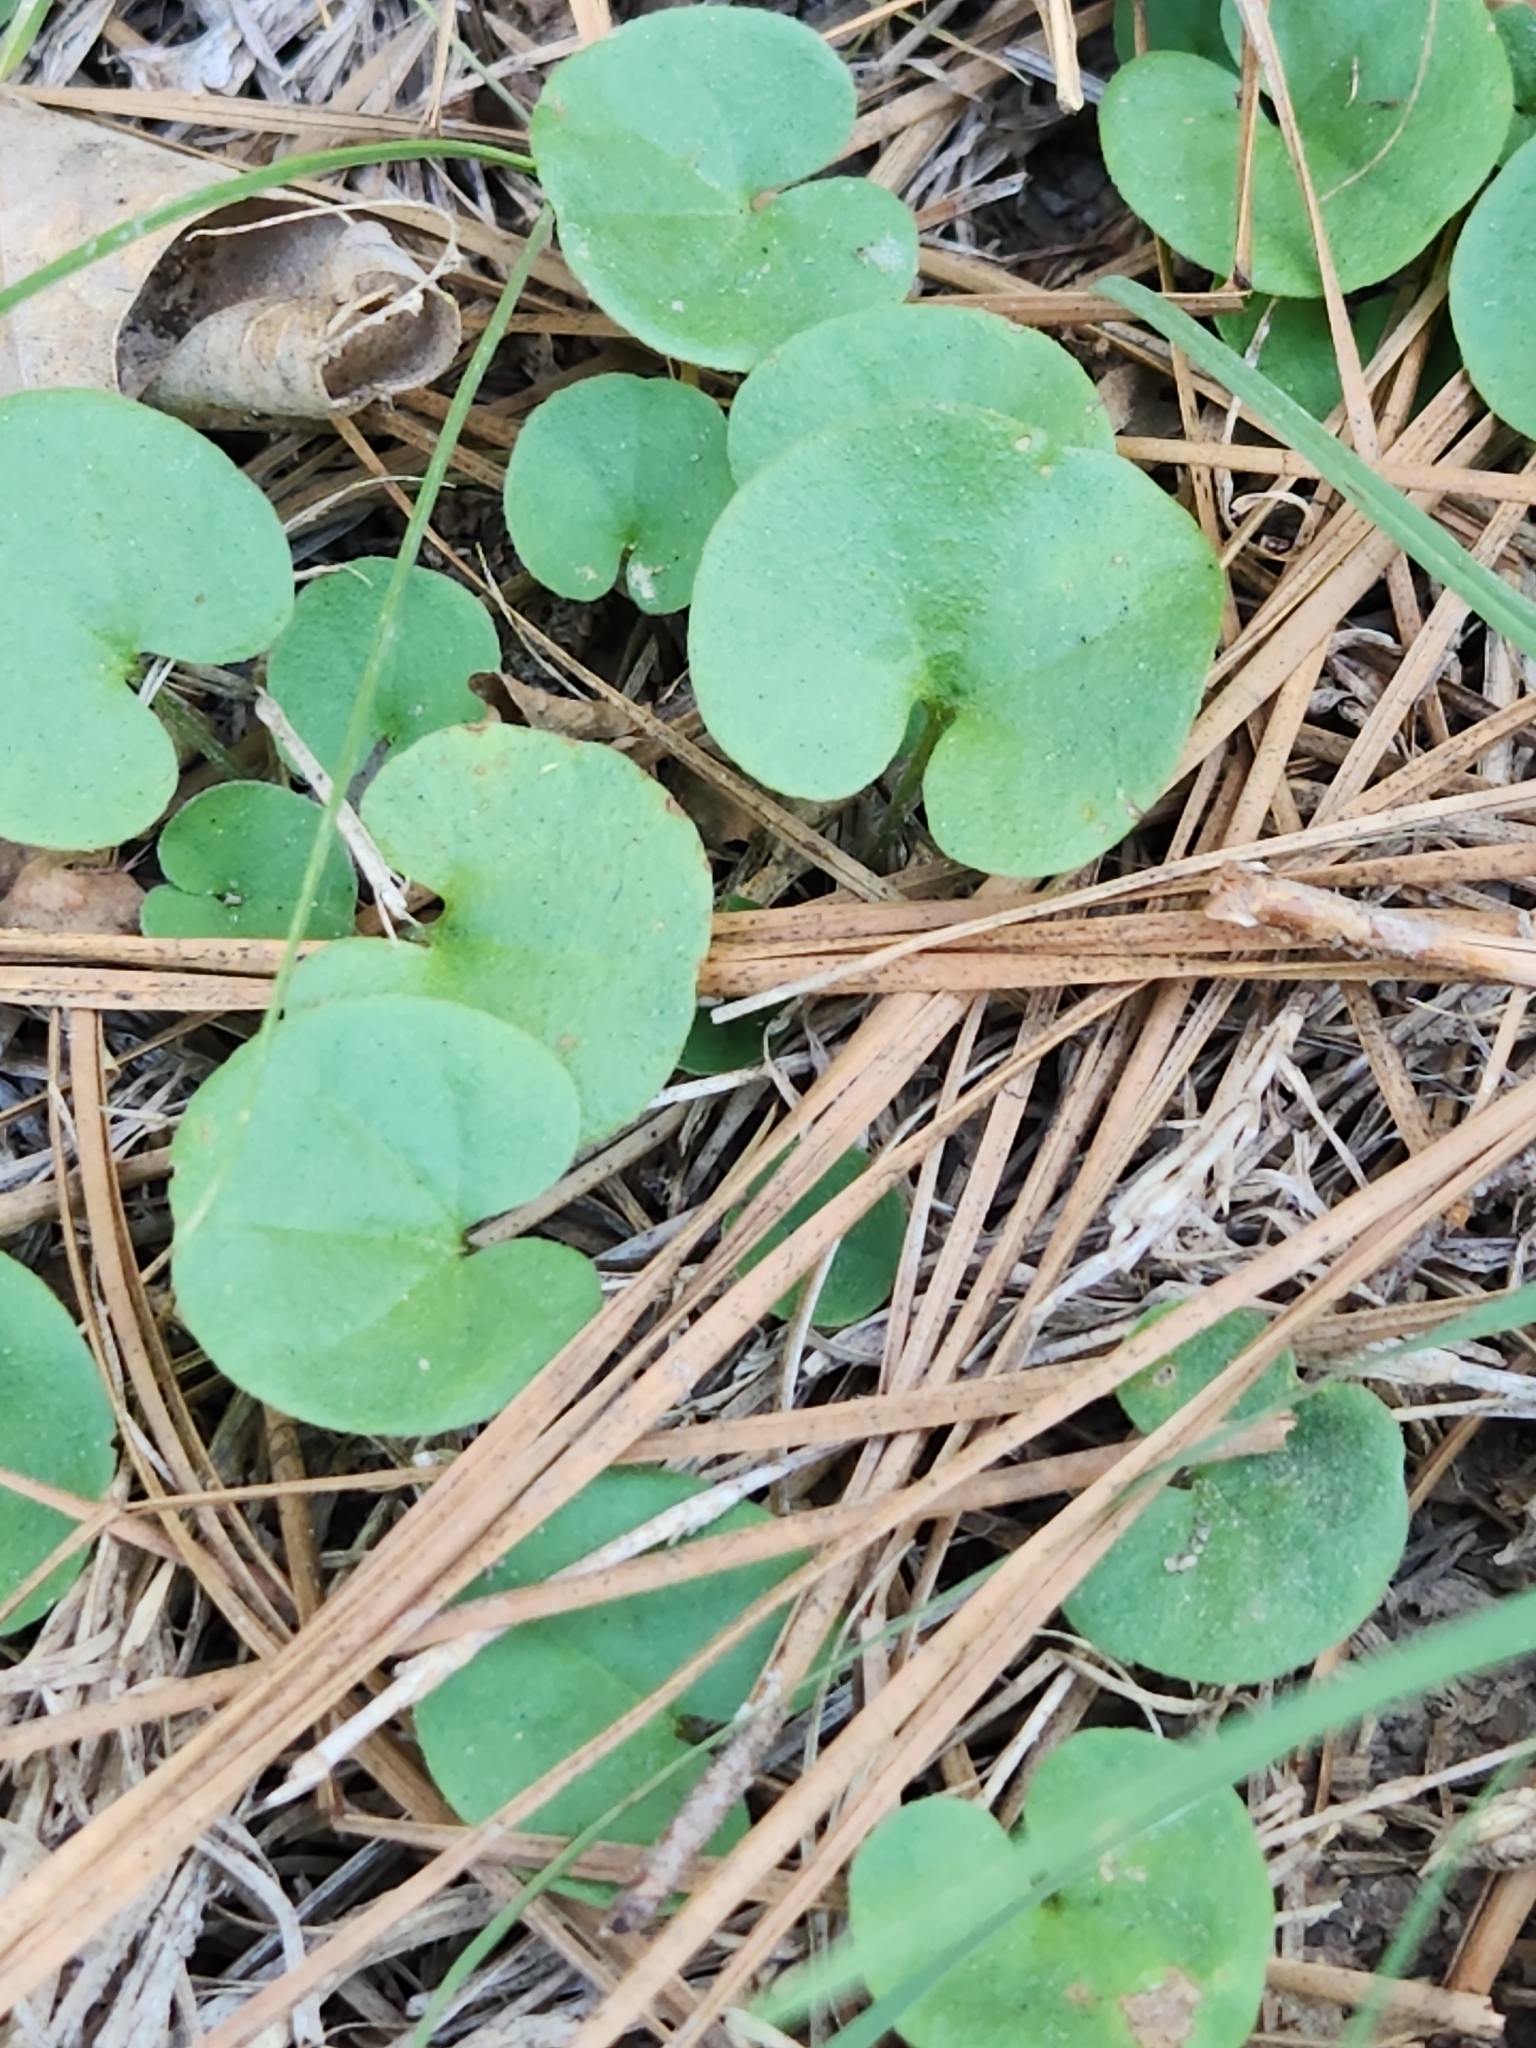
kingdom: Plantae
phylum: Tracheophyta
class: Magnoliopsida
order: Solanales
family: Convolvulaceae
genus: Dichondra
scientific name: Dichondra carolinensis
